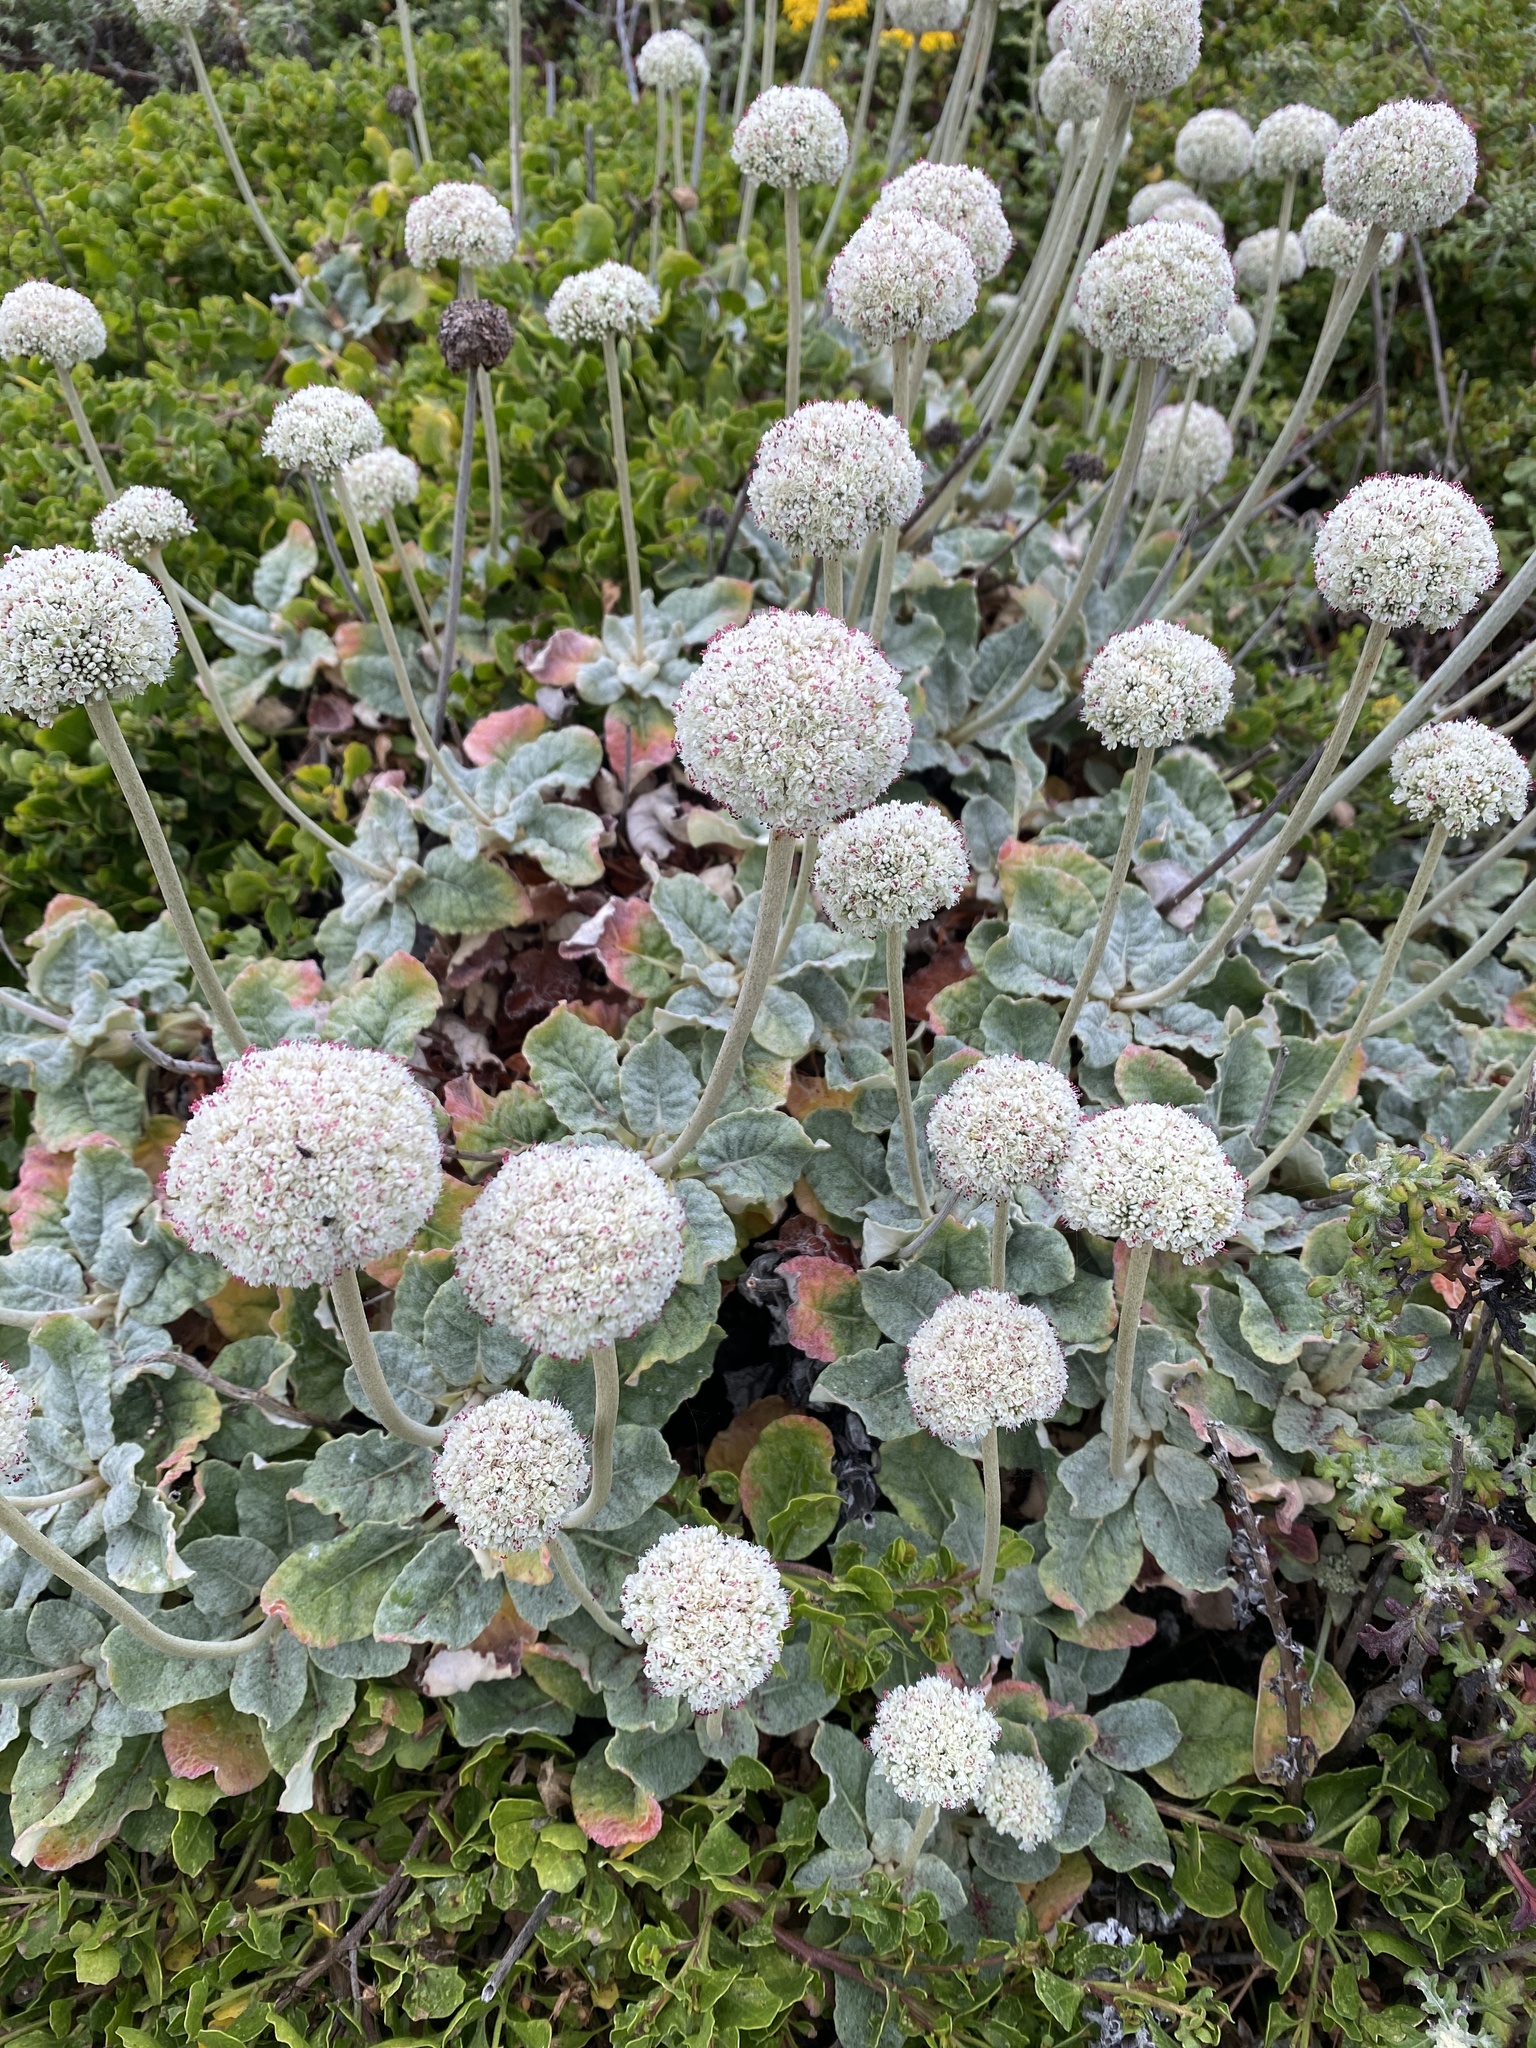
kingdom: Plantae
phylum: Tracheophyta
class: Magnoliopsida
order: Caryophyllales
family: Polygonaceae
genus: Eriogonum
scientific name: Eriogonum latifolium
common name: Seaside wild buckwheat
